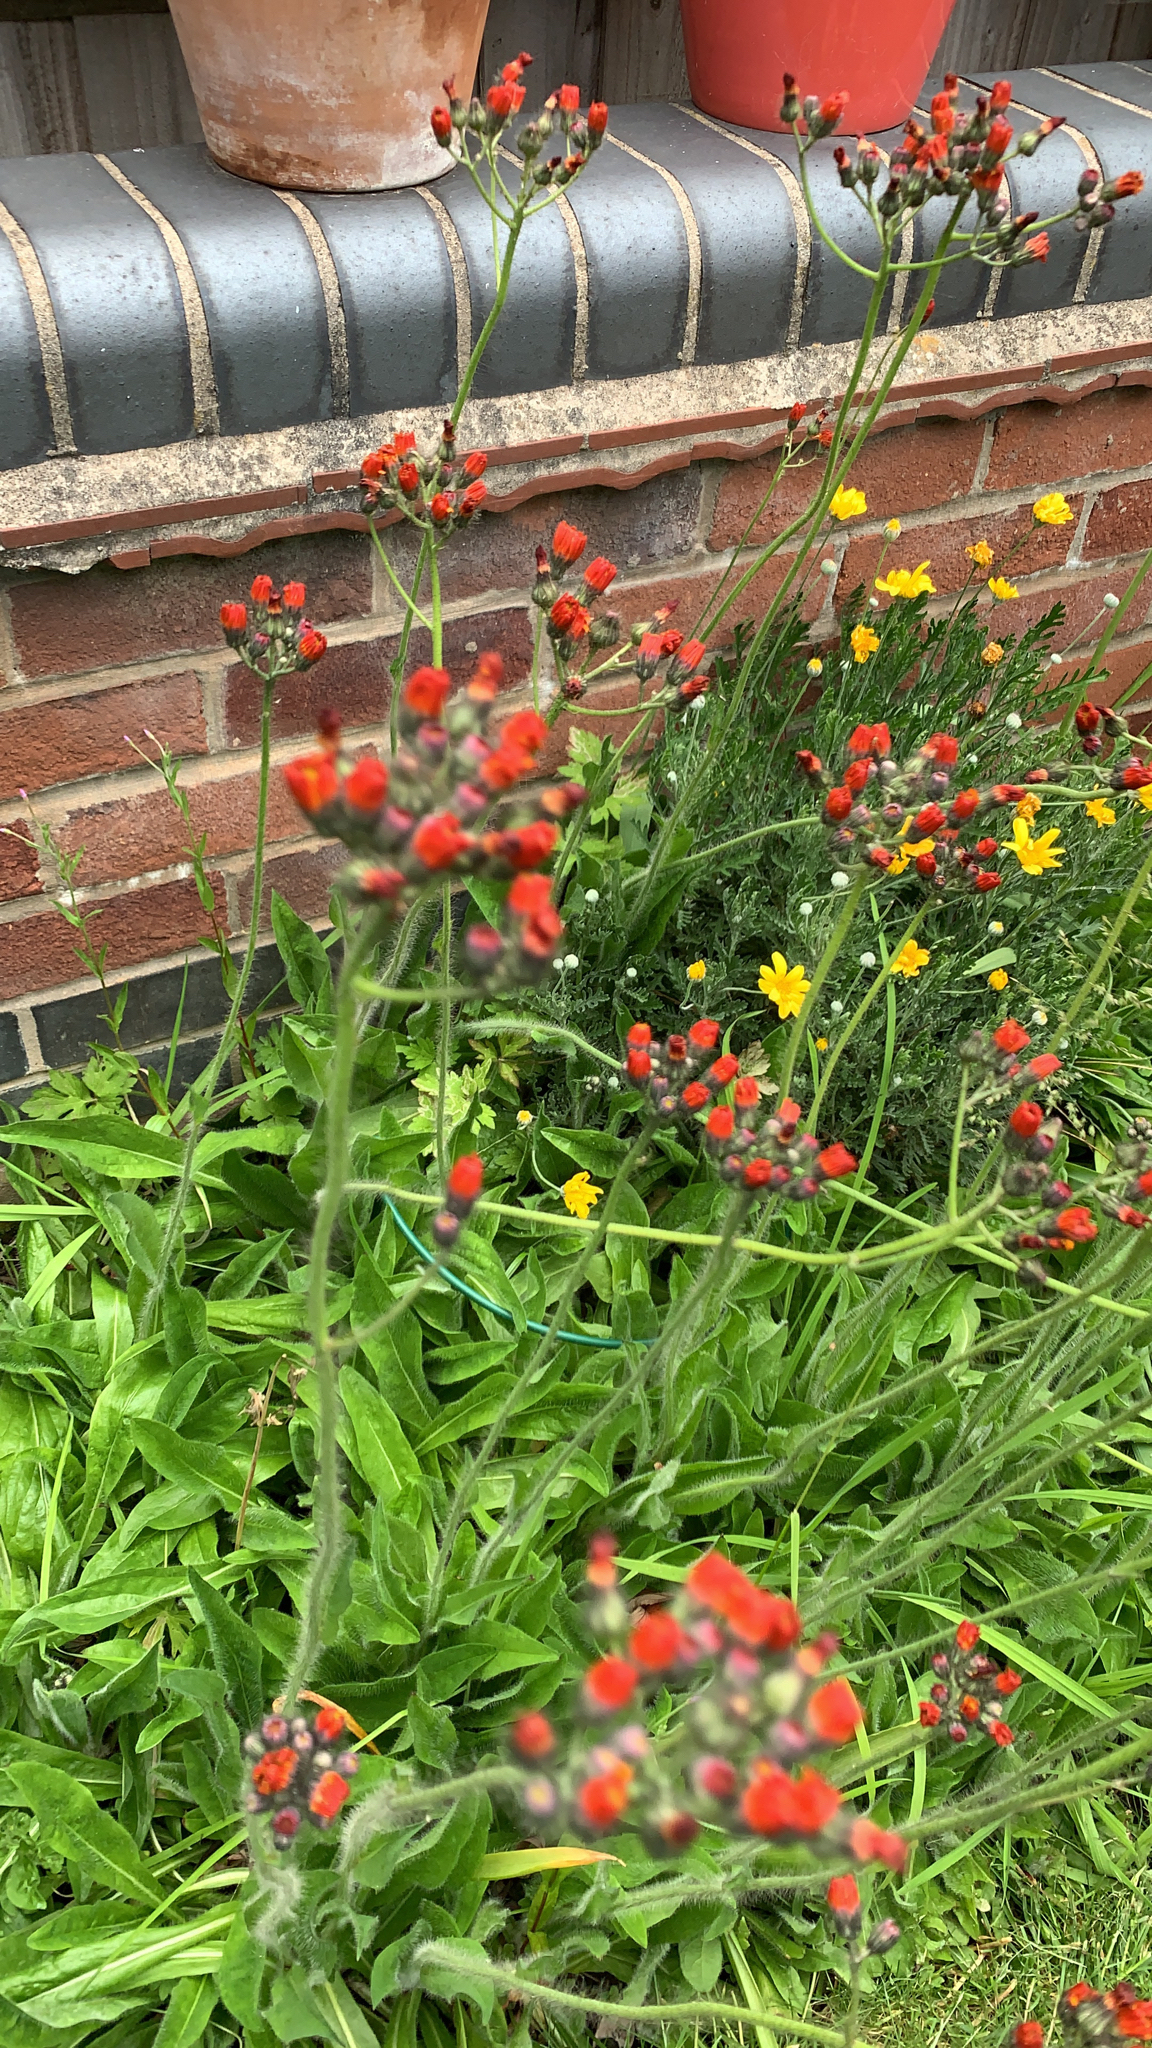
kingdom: Plantae
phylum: Tracheophyta
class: Magnoliopsida
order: Asterales
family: Asteraceae
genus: Pilosella
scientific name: Pilosella aurantiaca
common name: Fox-and-cubs
